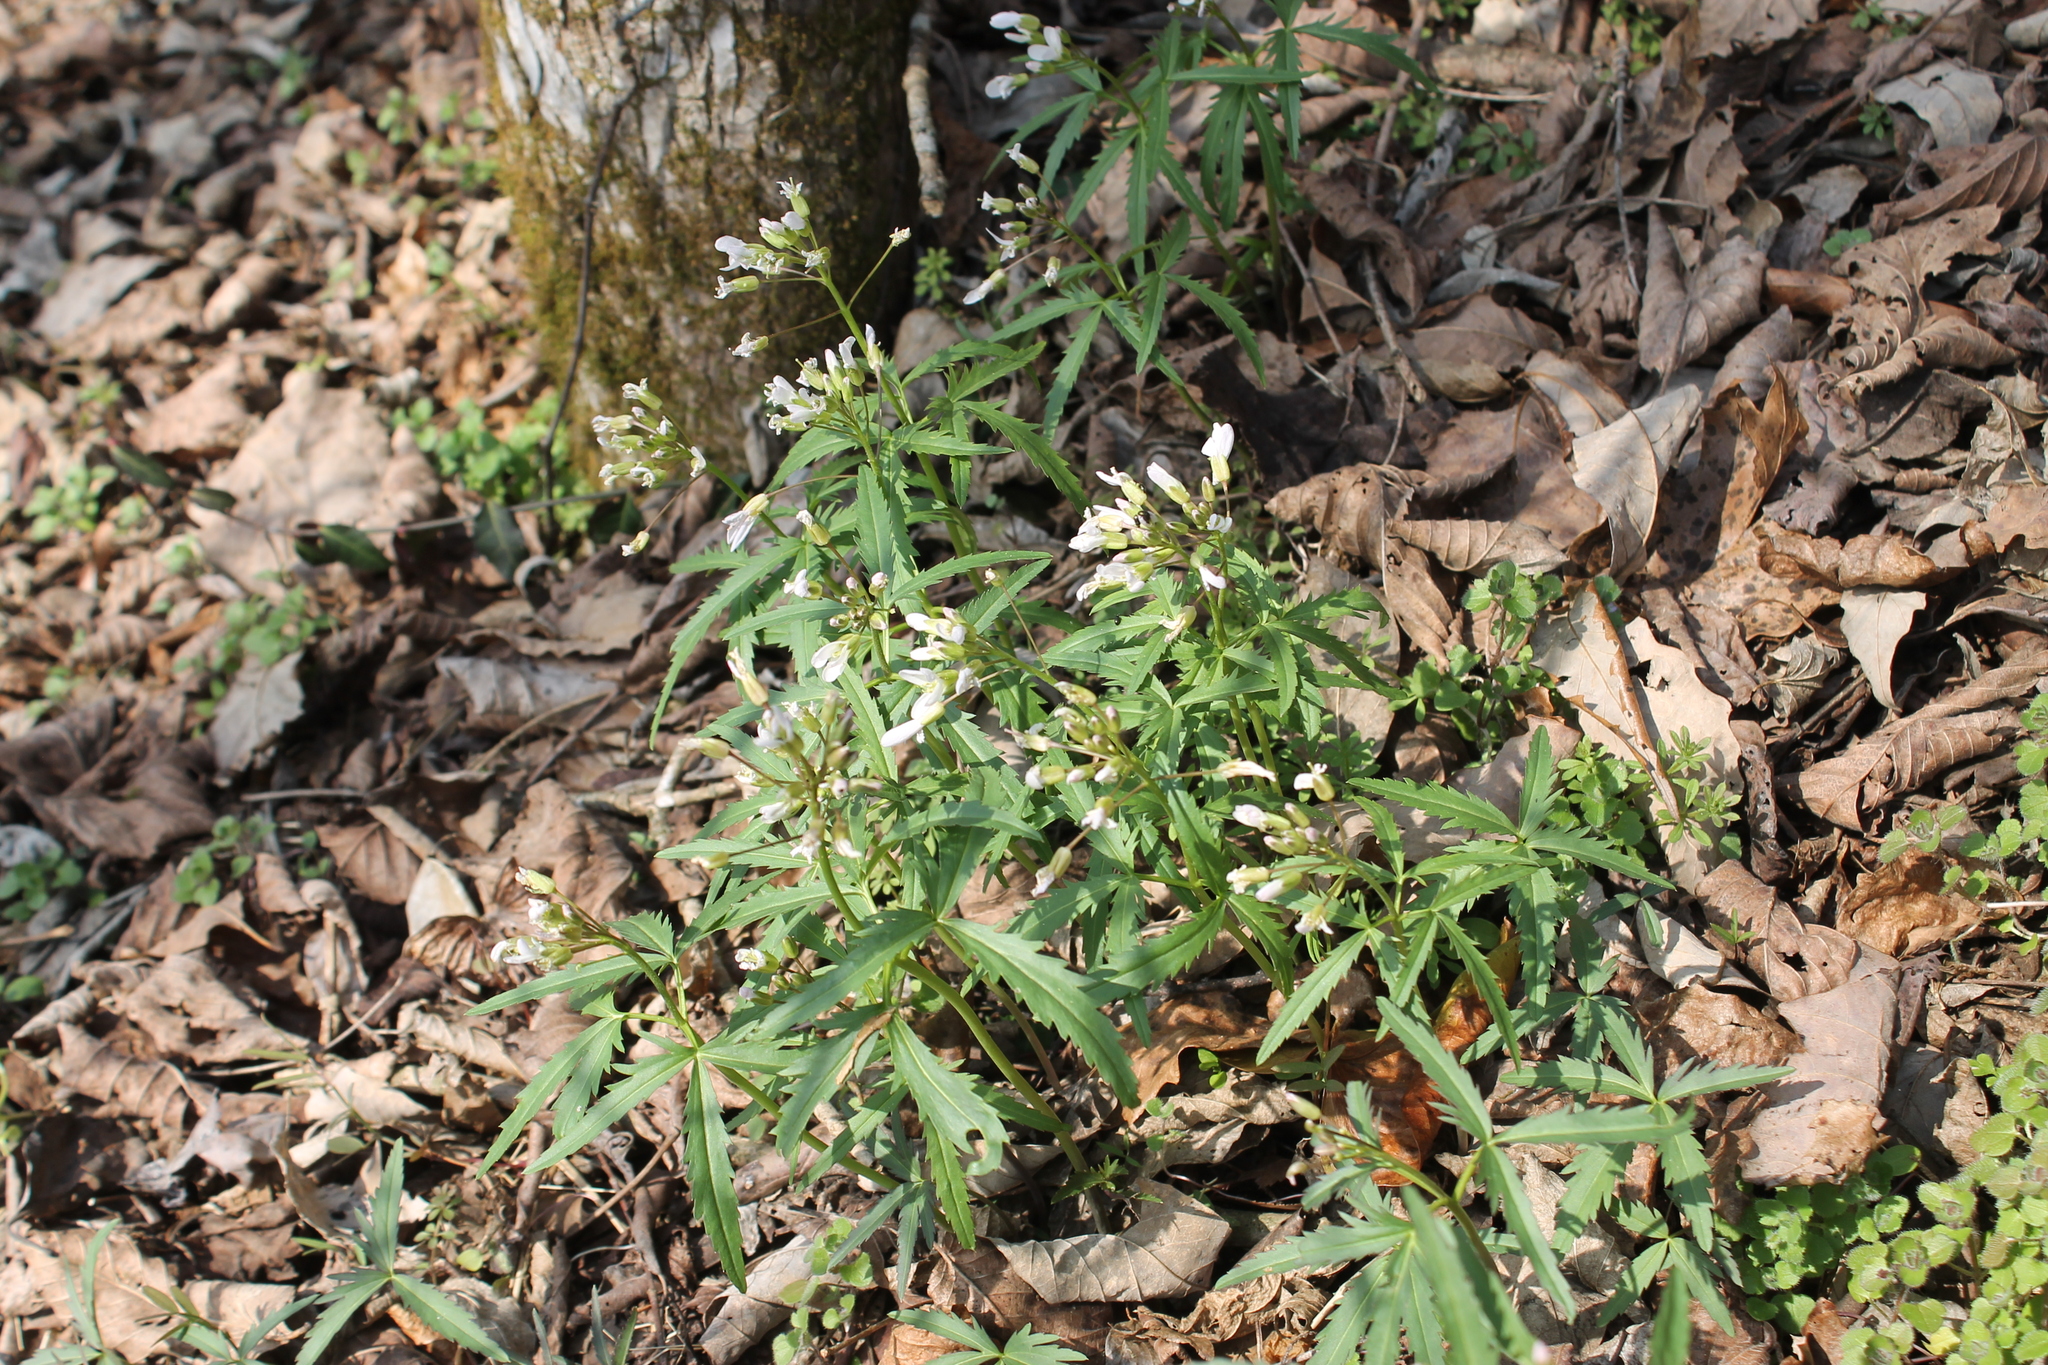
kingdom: Plantae
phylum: Tracheophyta
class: Magnoliopsida
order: Brassicales
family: Brassicaceae
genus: Cardamine
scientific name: Cardamine concatenata
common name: Cut-leaf toothcup
